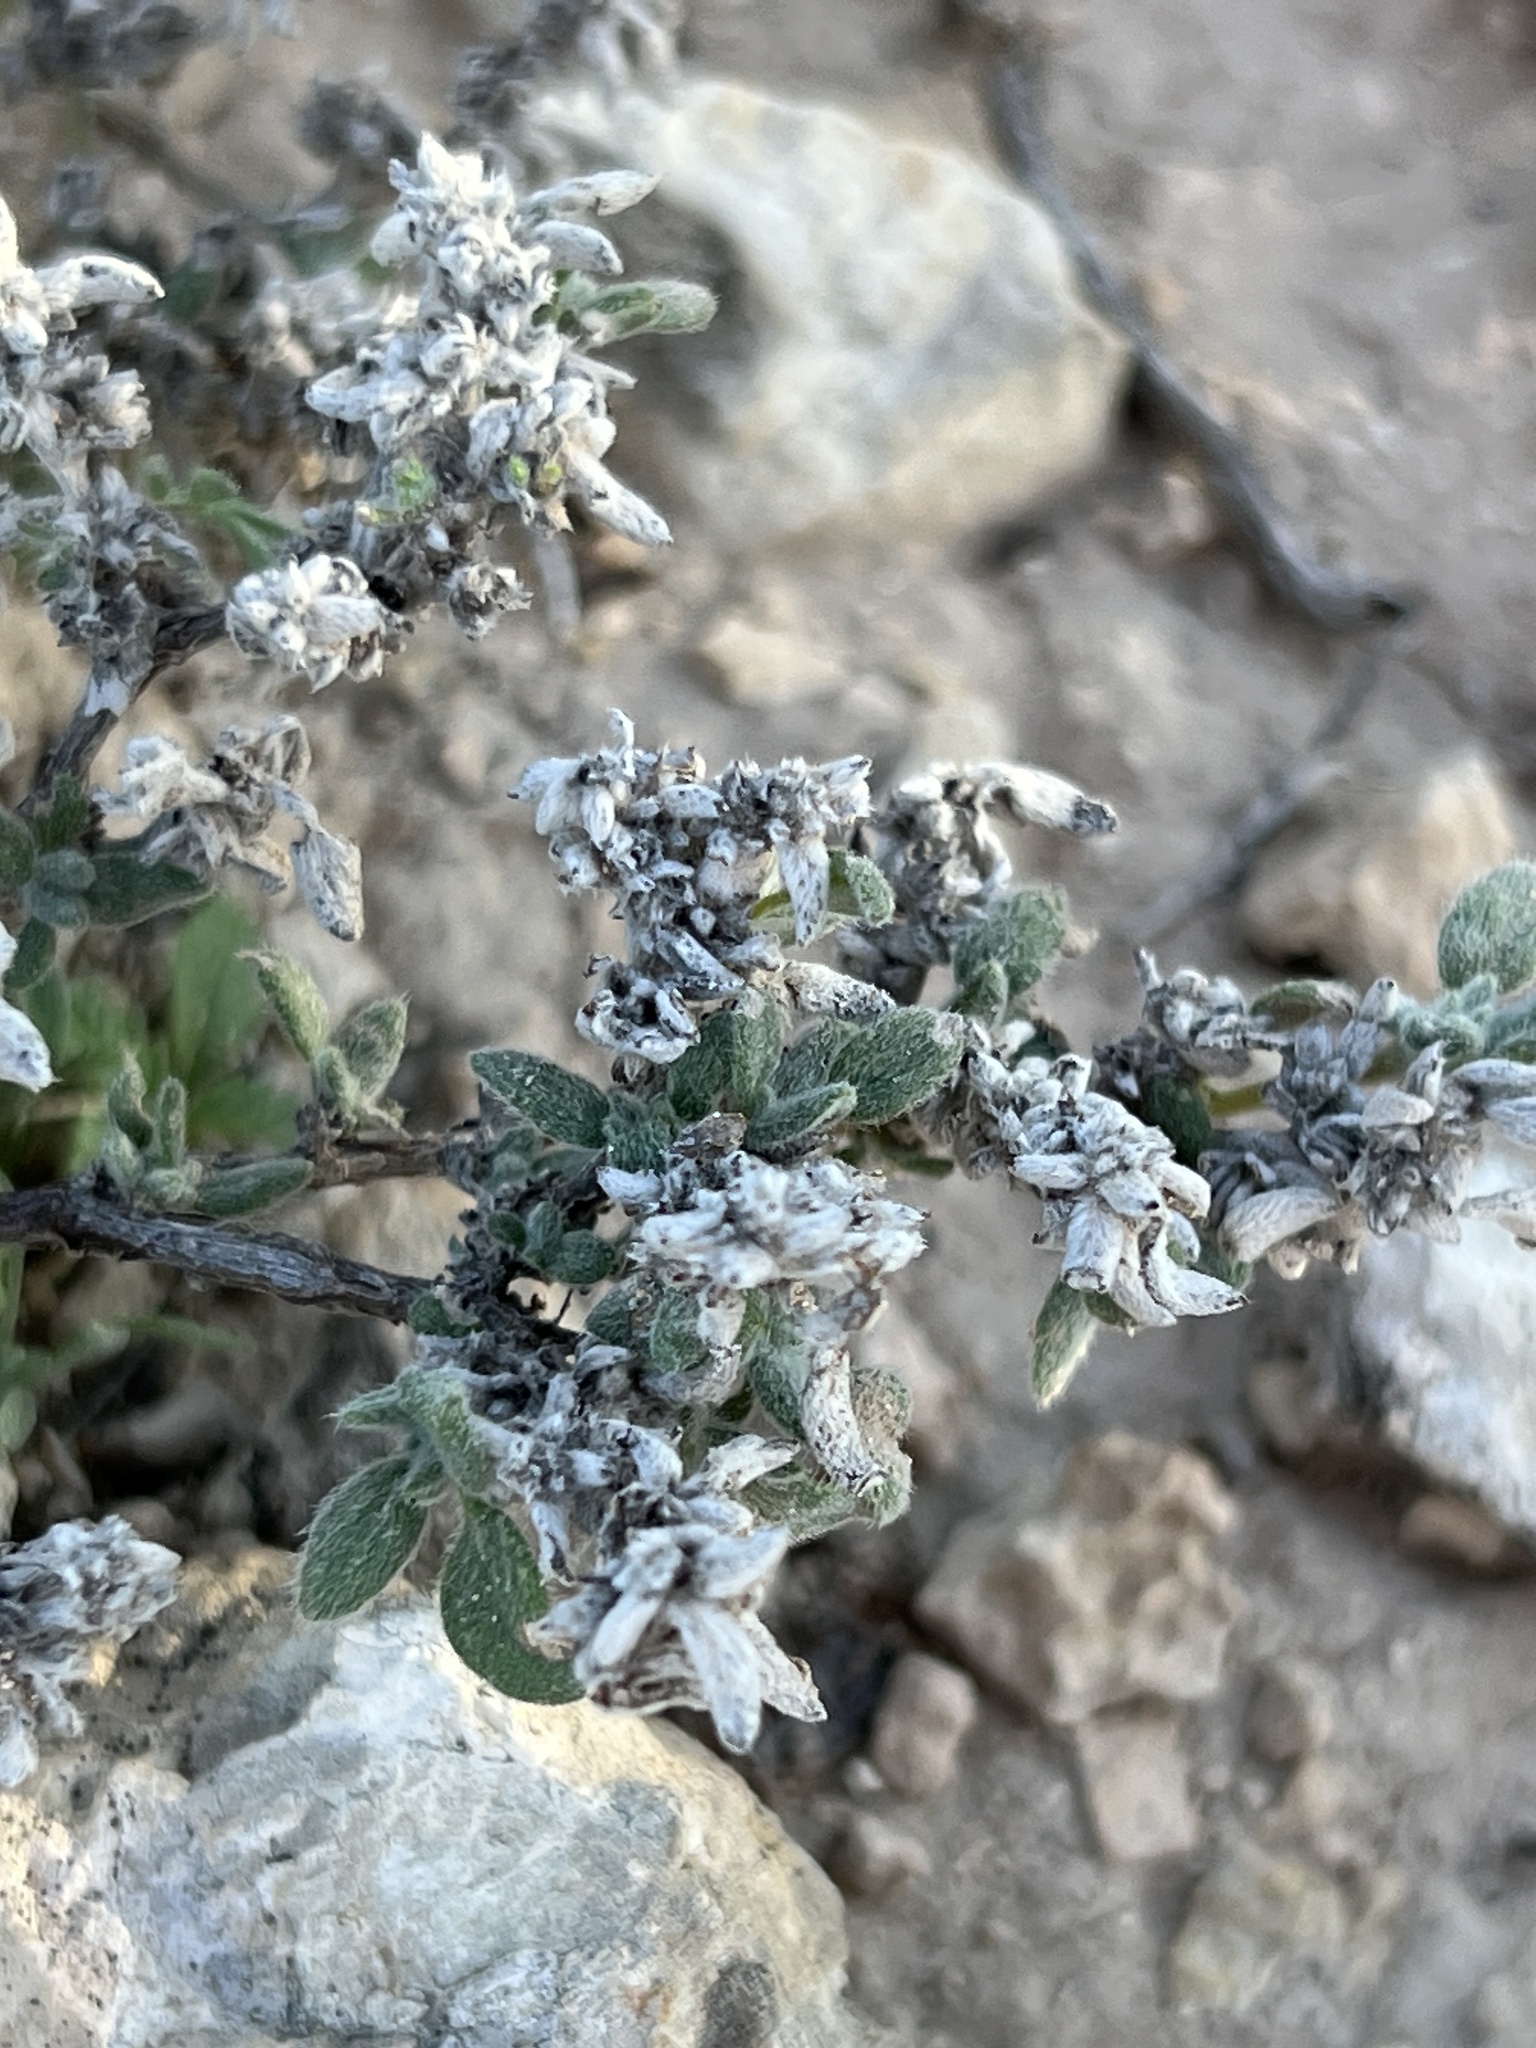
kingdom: Plantae
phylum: Tracheophyta
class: Magnoliopsida
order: Boraginales
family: Ehretiaceae
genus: Tiquilia
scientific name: Tiquilia canescens
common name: Hairy tiquilia
